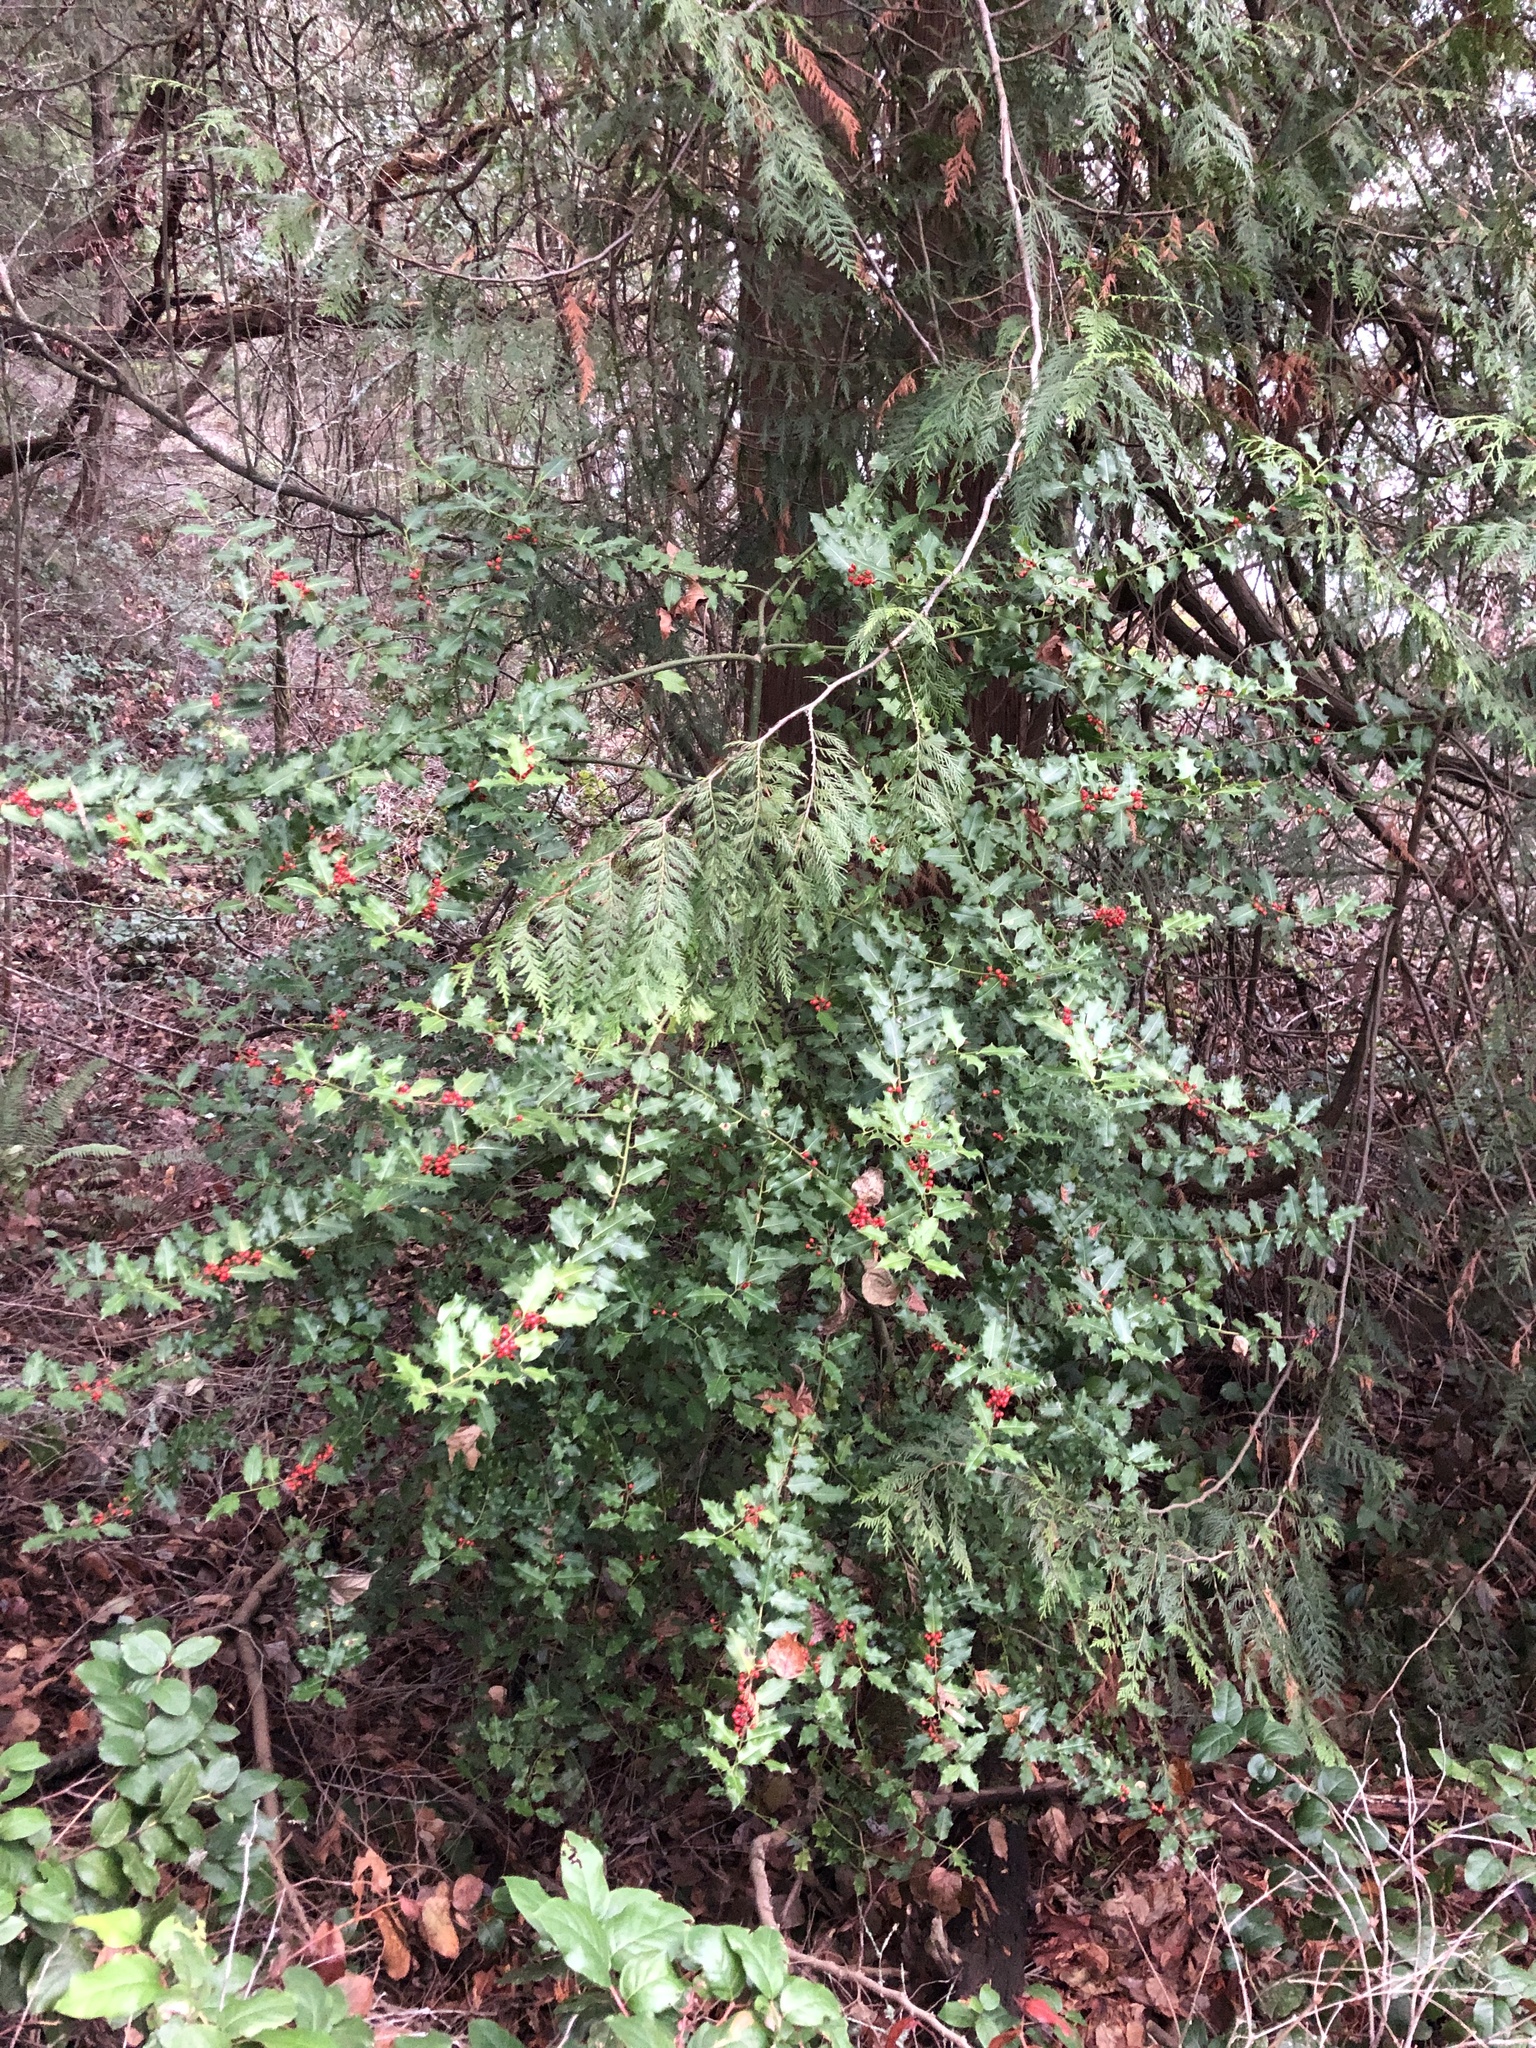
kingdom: Plantae
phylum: Tracheophyta
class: Magnoliopsida
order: Aquifoliales
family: Aquifoliaceae
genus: Ilex
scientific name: Ilex aquifolium
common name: English holly
